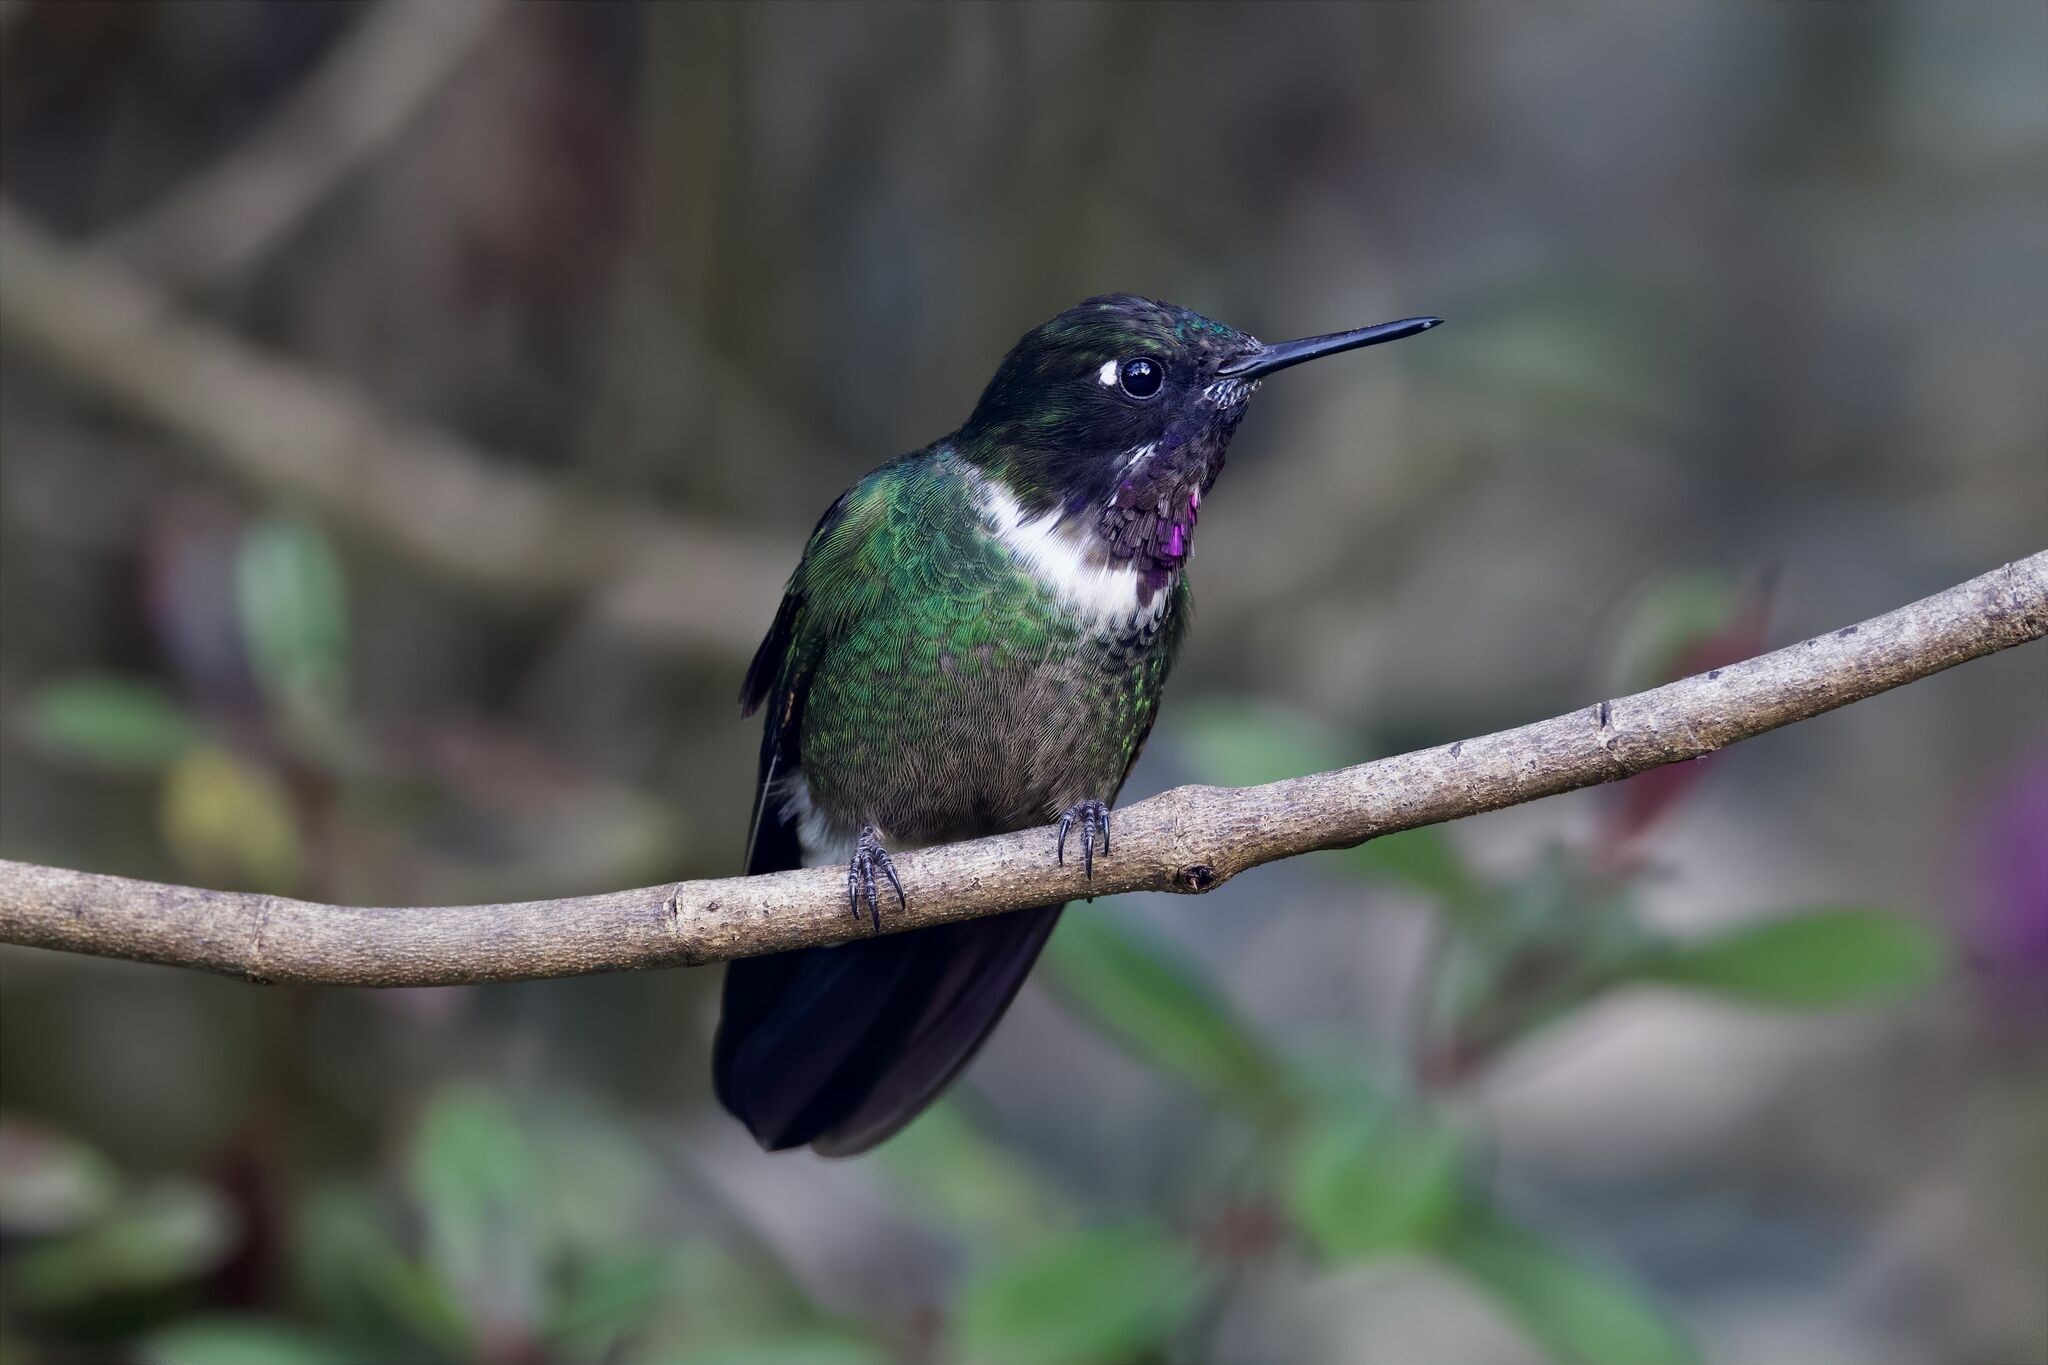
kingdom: Animalia
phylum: Chordata
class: Aves
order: Apodiformes
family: Trochilidae
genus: Heliangelus
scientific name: Heliangelus clarisse
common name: Longuemare's sunangel
